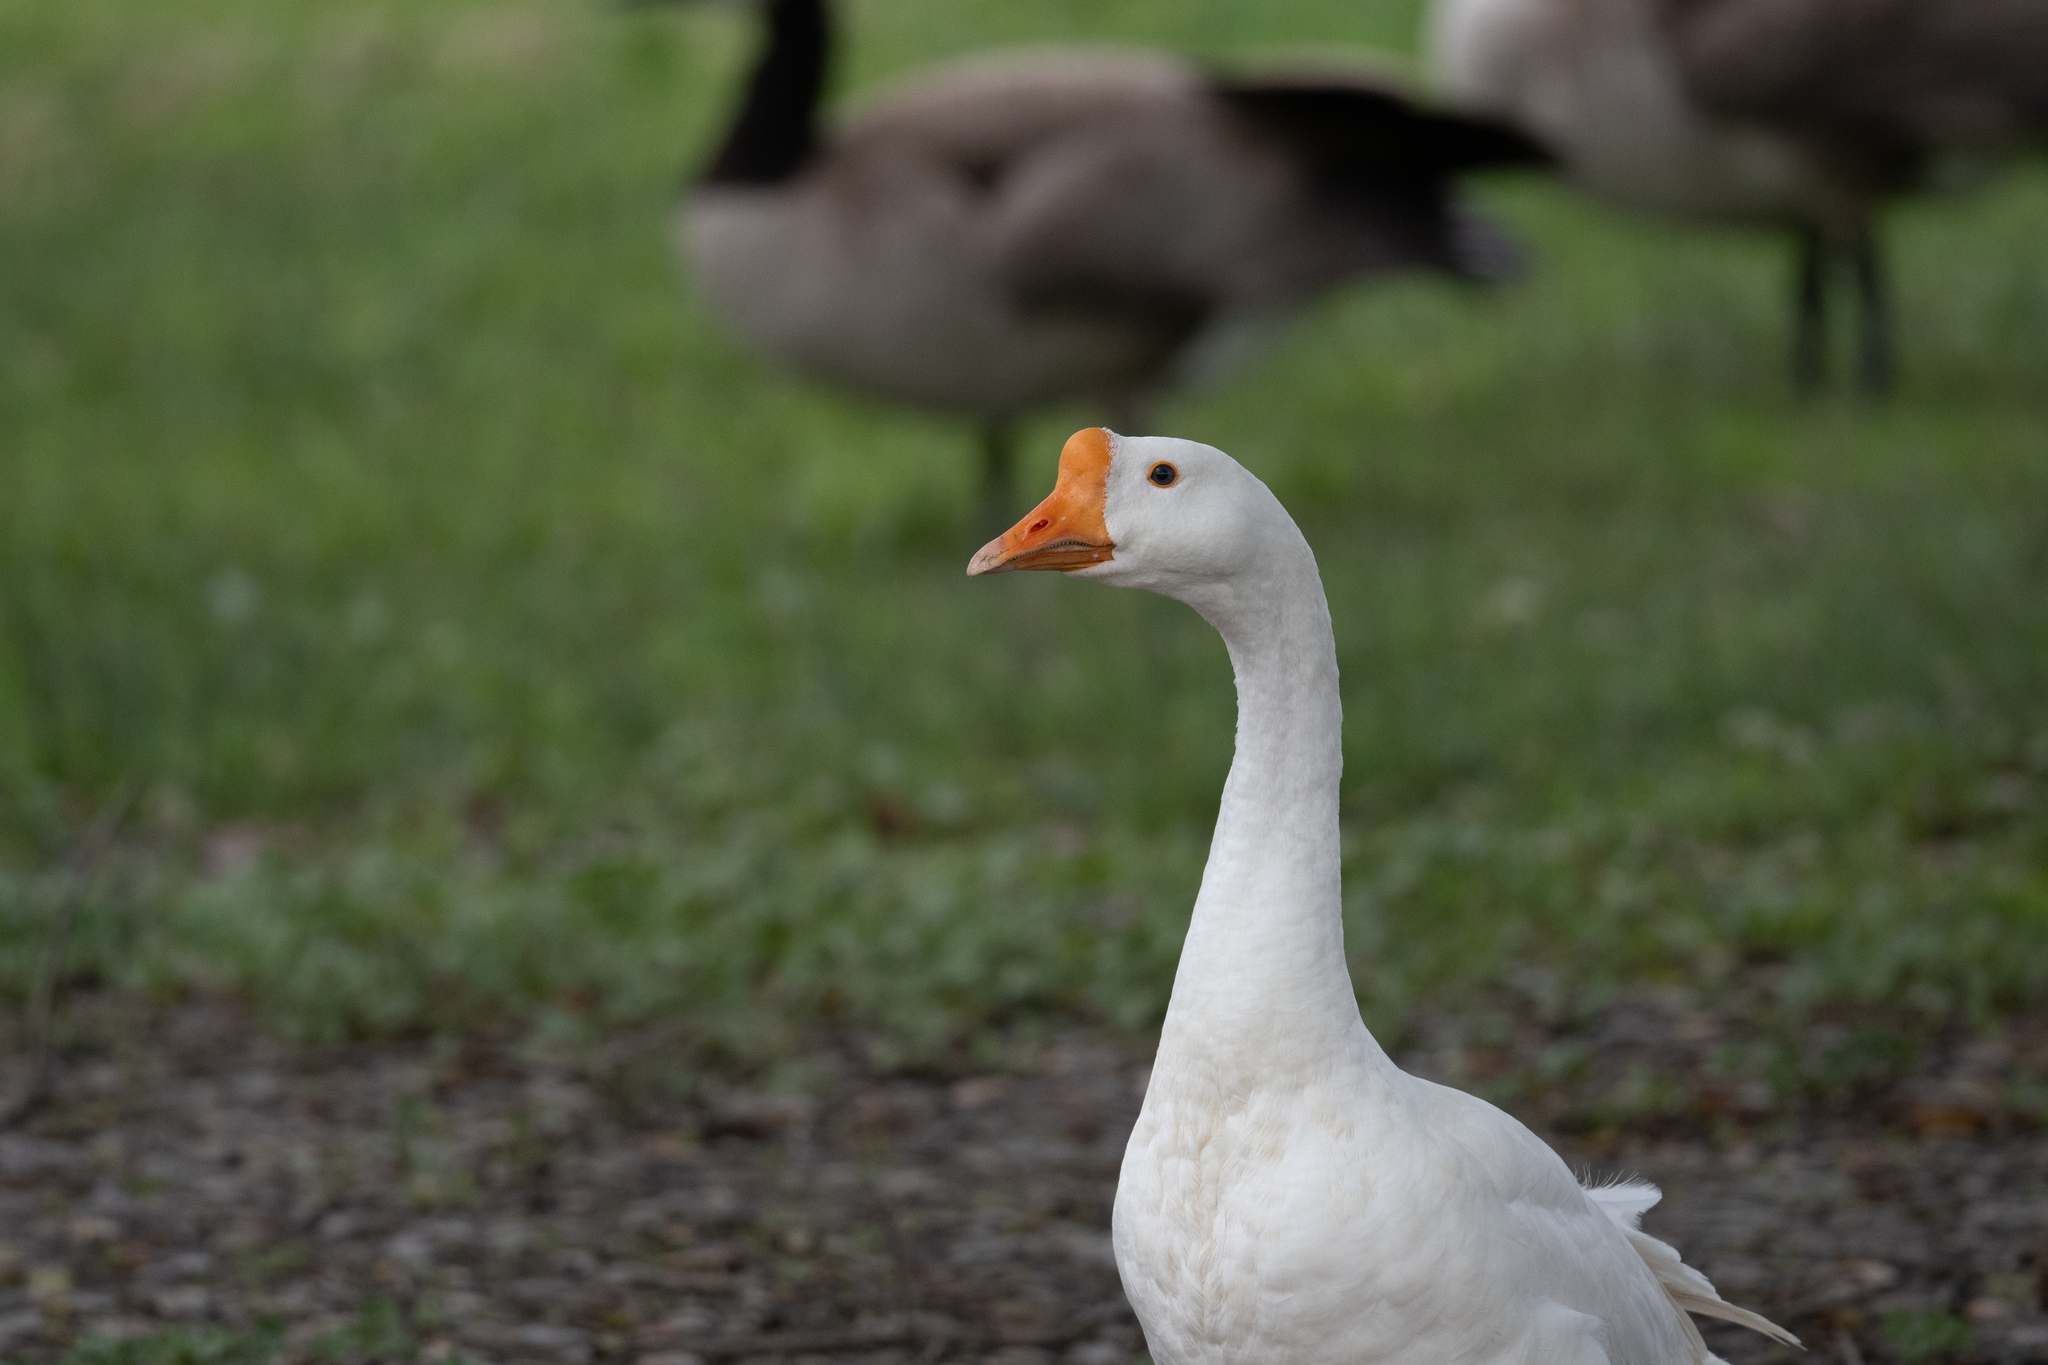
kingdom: Animalia
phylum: Chordata
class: Aves
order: Anseriformes
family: Anatidae
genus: Anser
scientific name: Anser cygnoides
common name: Swan goose
